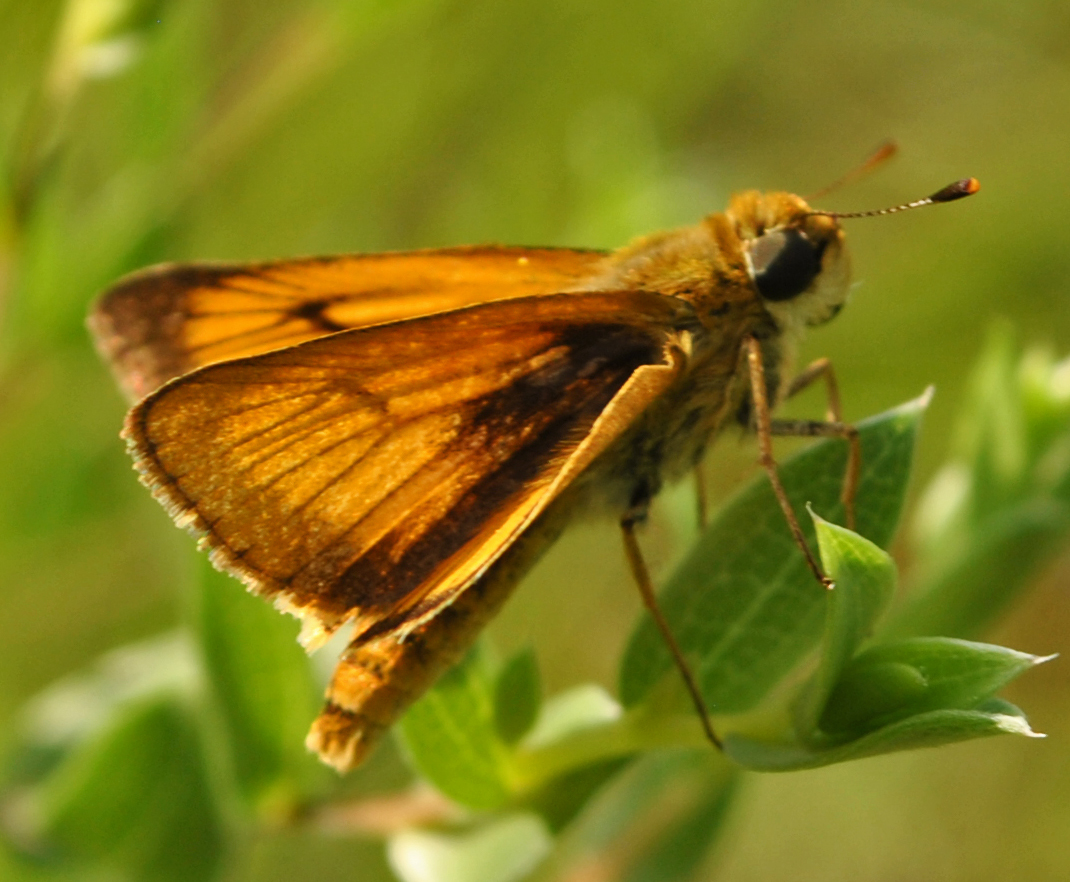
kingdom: Animalia
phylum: Arthropoda
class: Insecta
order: Lepidoptera
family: Hesperiidae
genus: Atrytone
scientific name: Atrytone delaware
